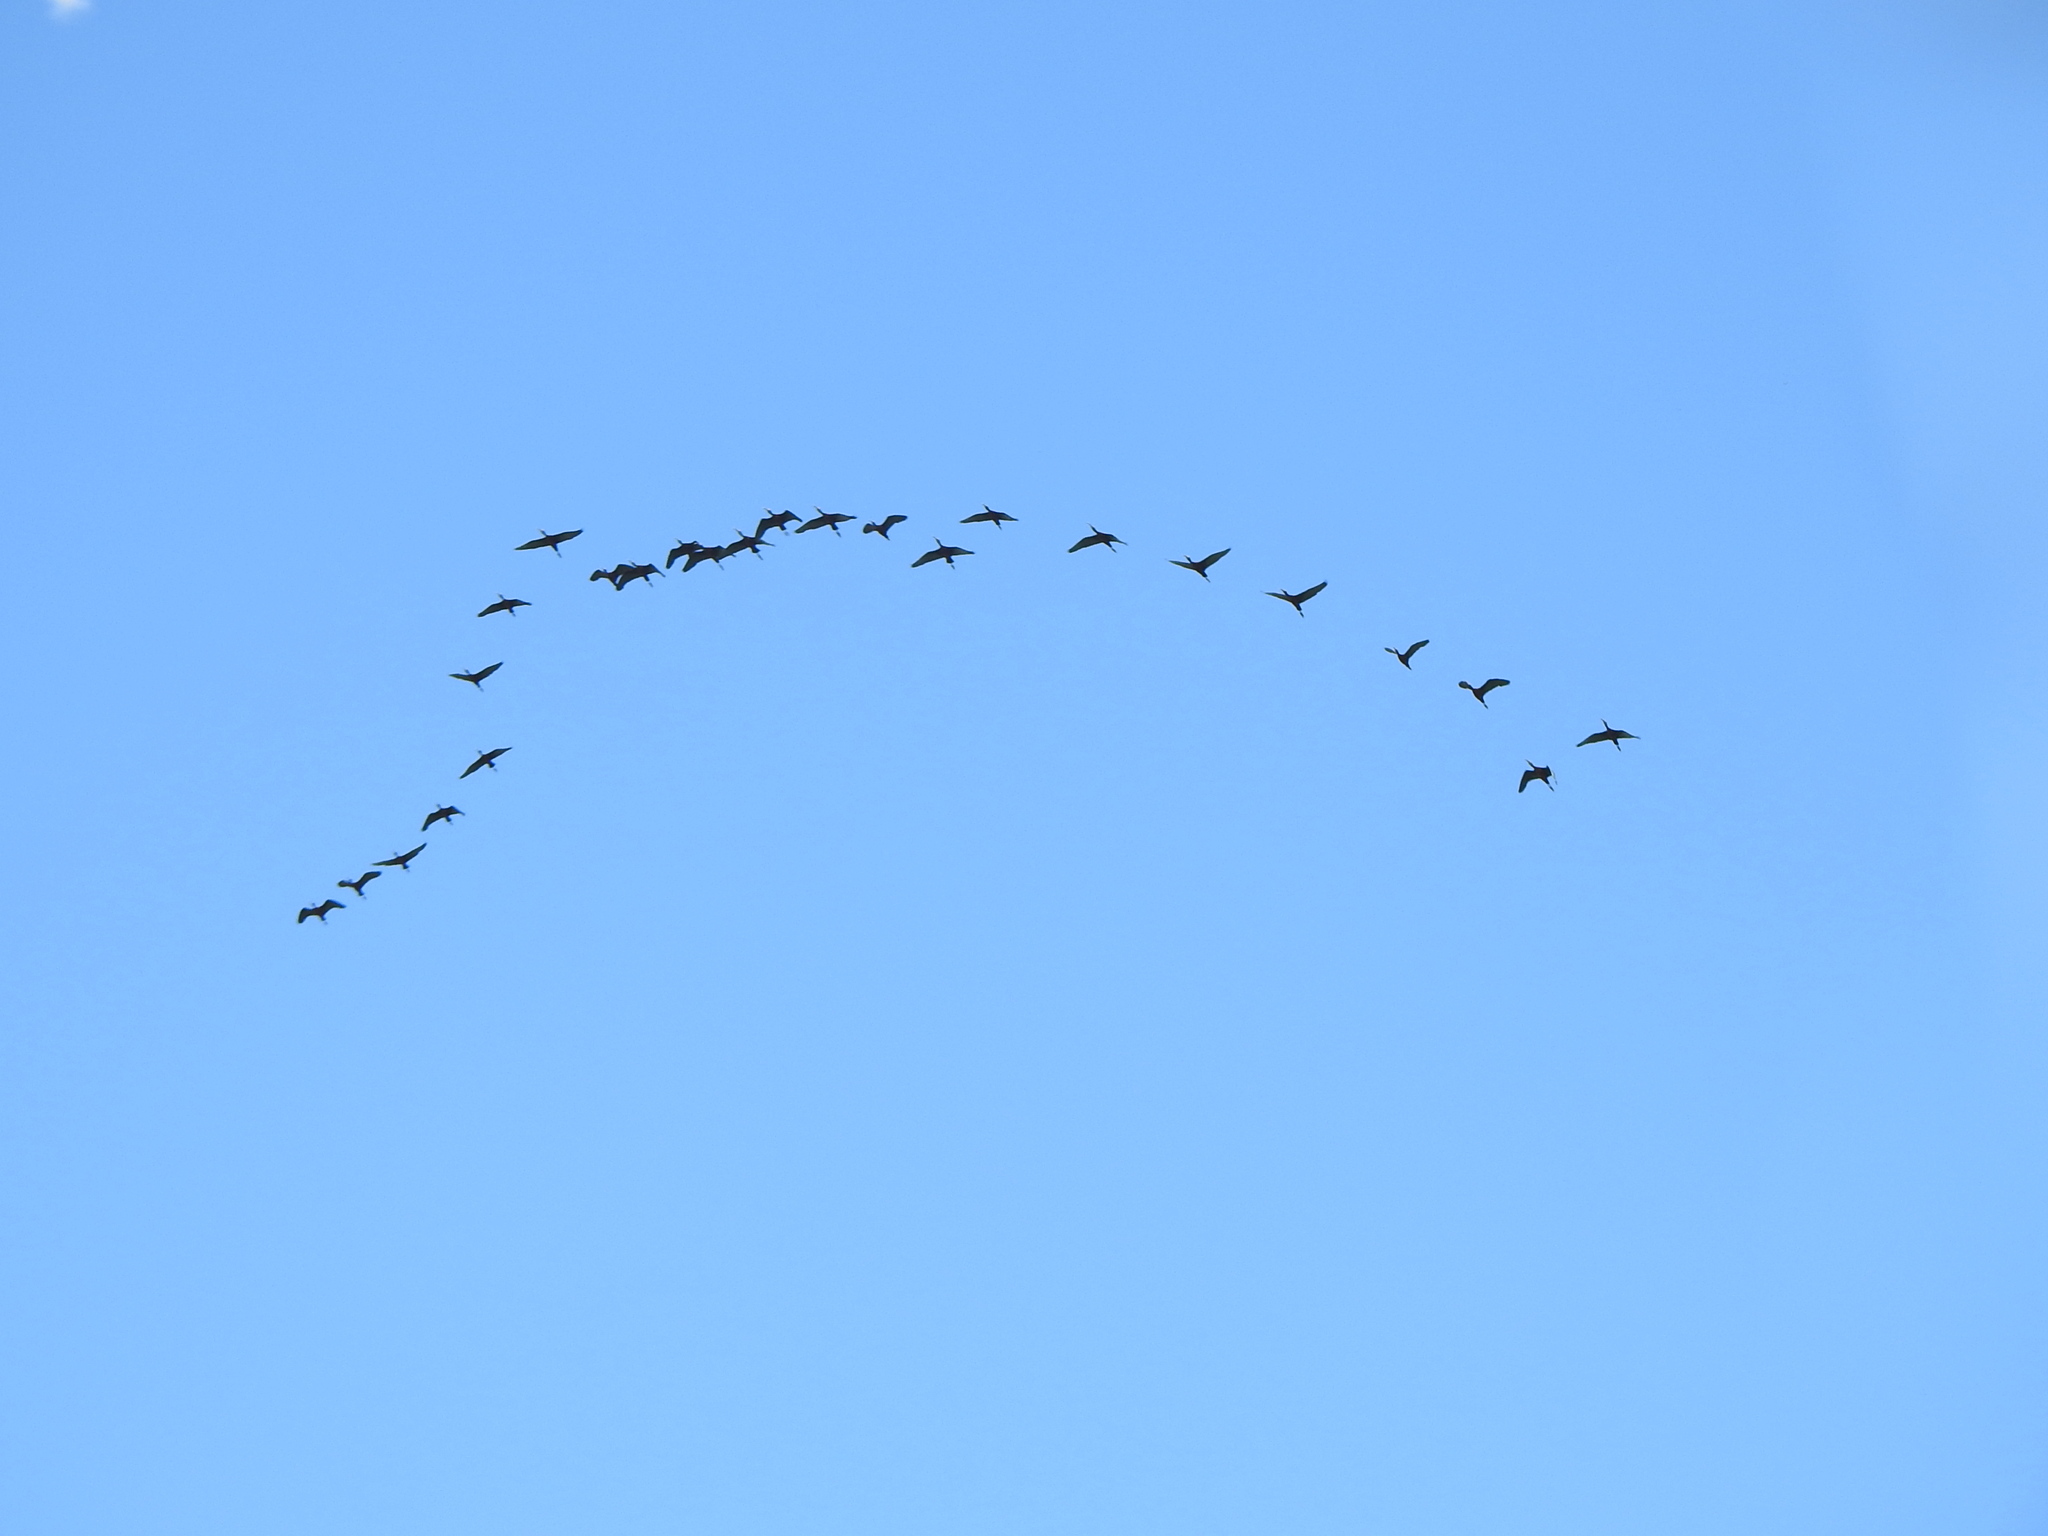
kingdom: Animalia
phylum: Chordata
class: Aves
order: Pelecaniformes
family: Threskiornithidae
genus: Plegadis
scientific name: Plegadis chihi
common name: White-faced ibis
